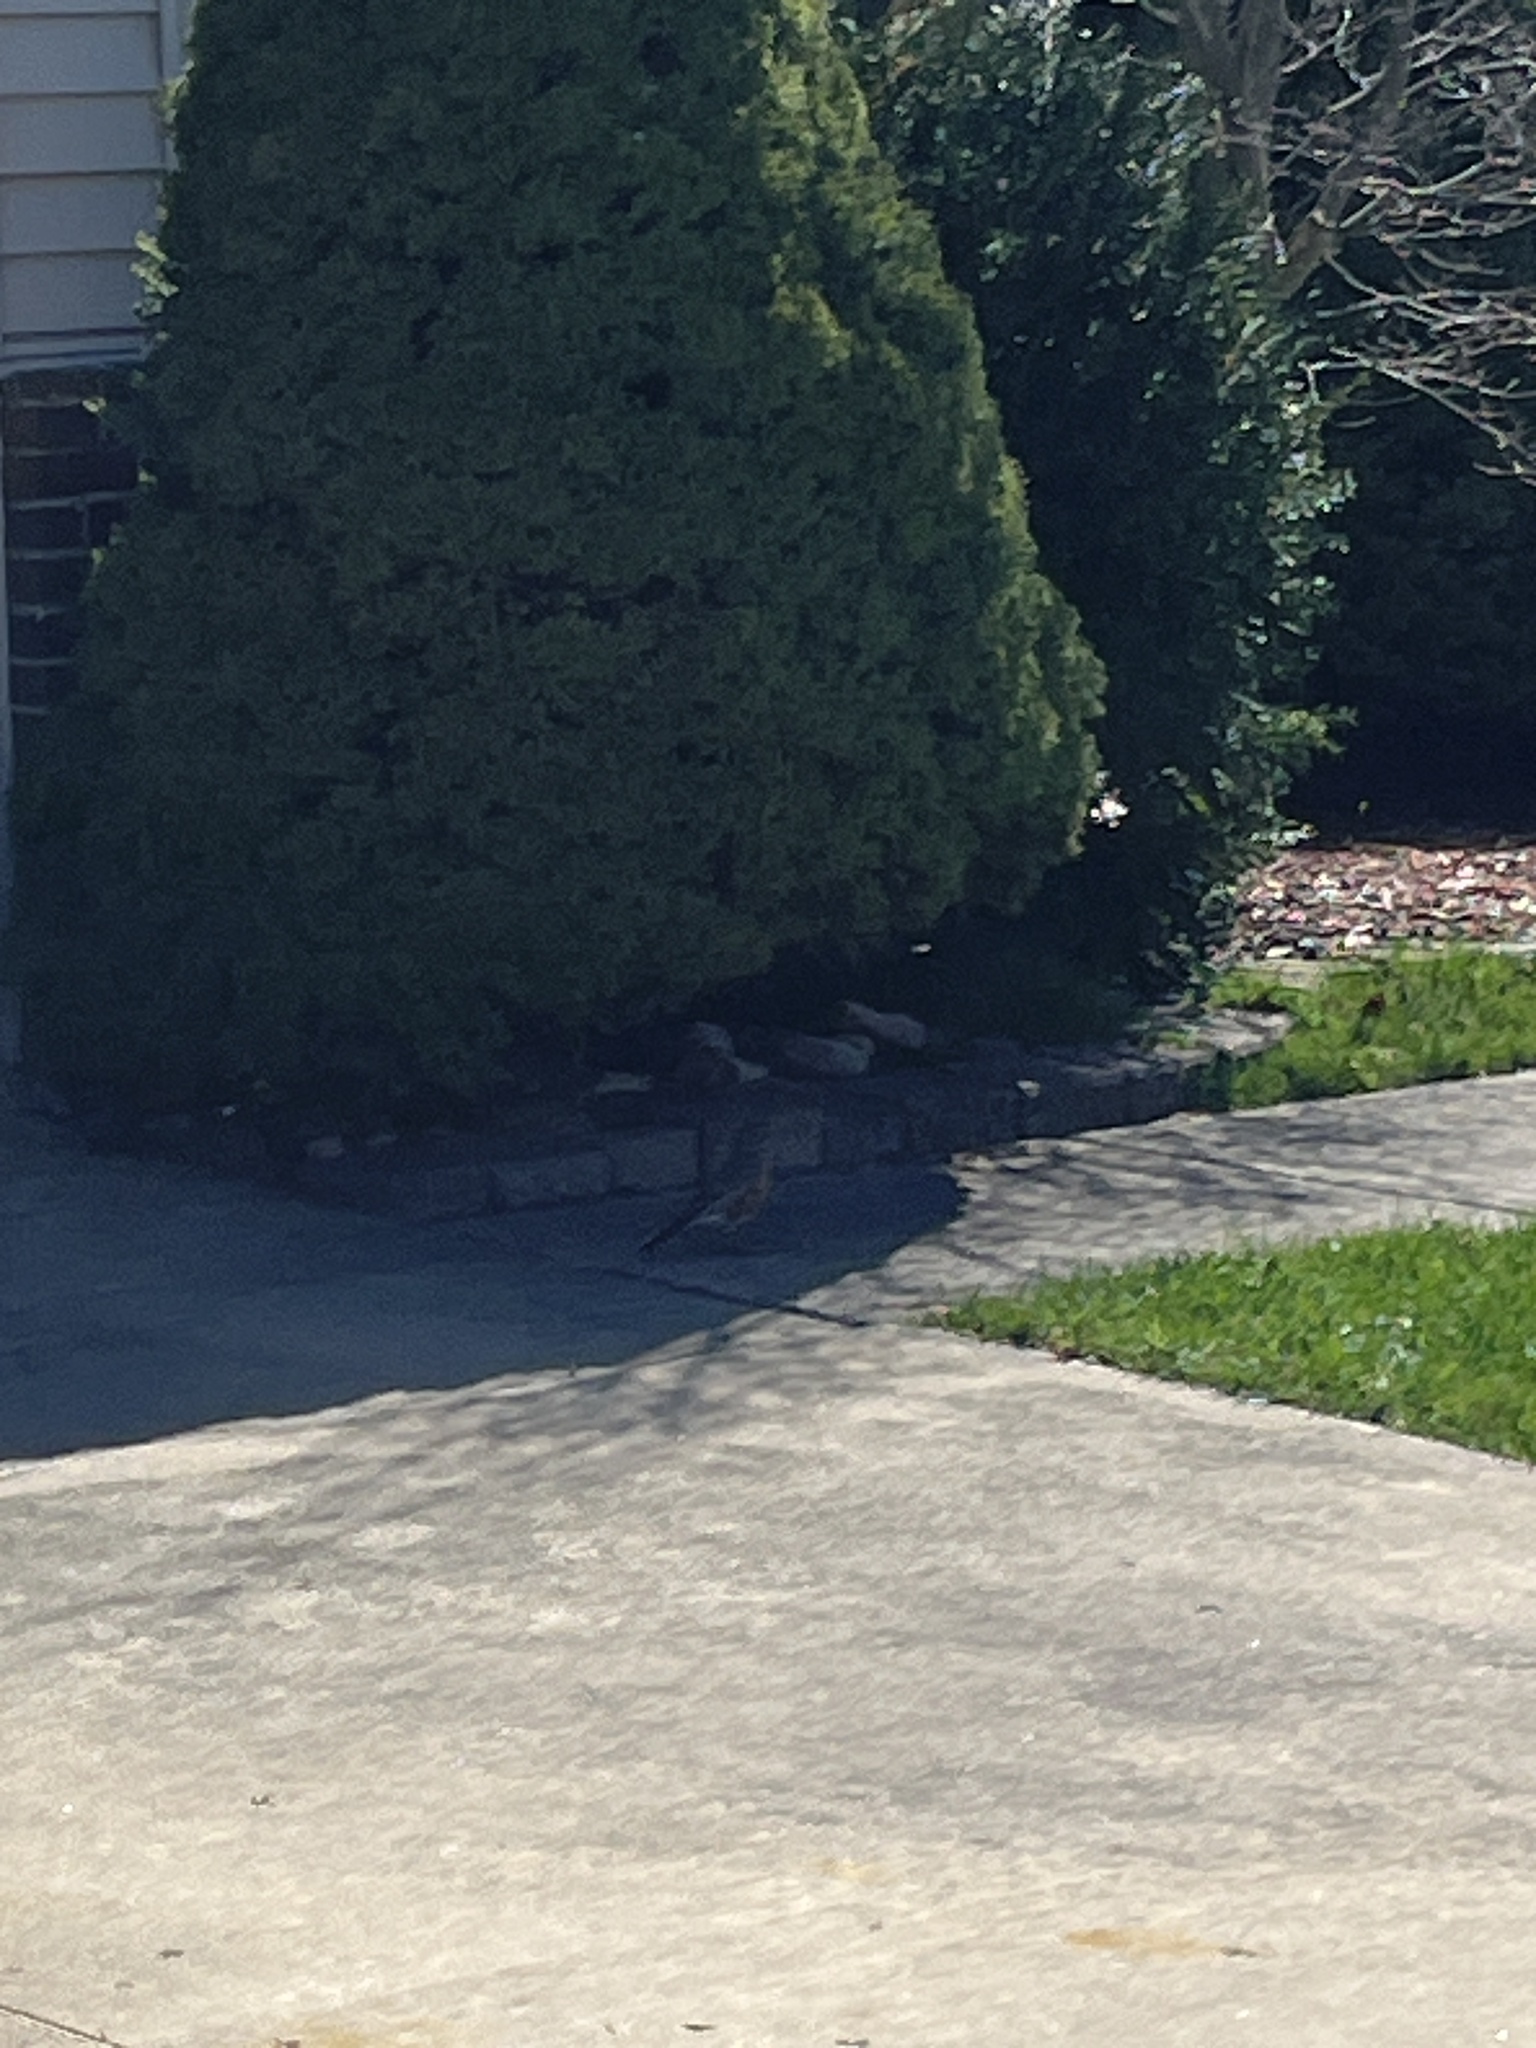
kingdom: Animalia
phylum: Chordata
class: Aves
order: Passeriformes
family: Turdidae
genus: Turdus
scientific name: Turdus migratorius
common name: American robin
